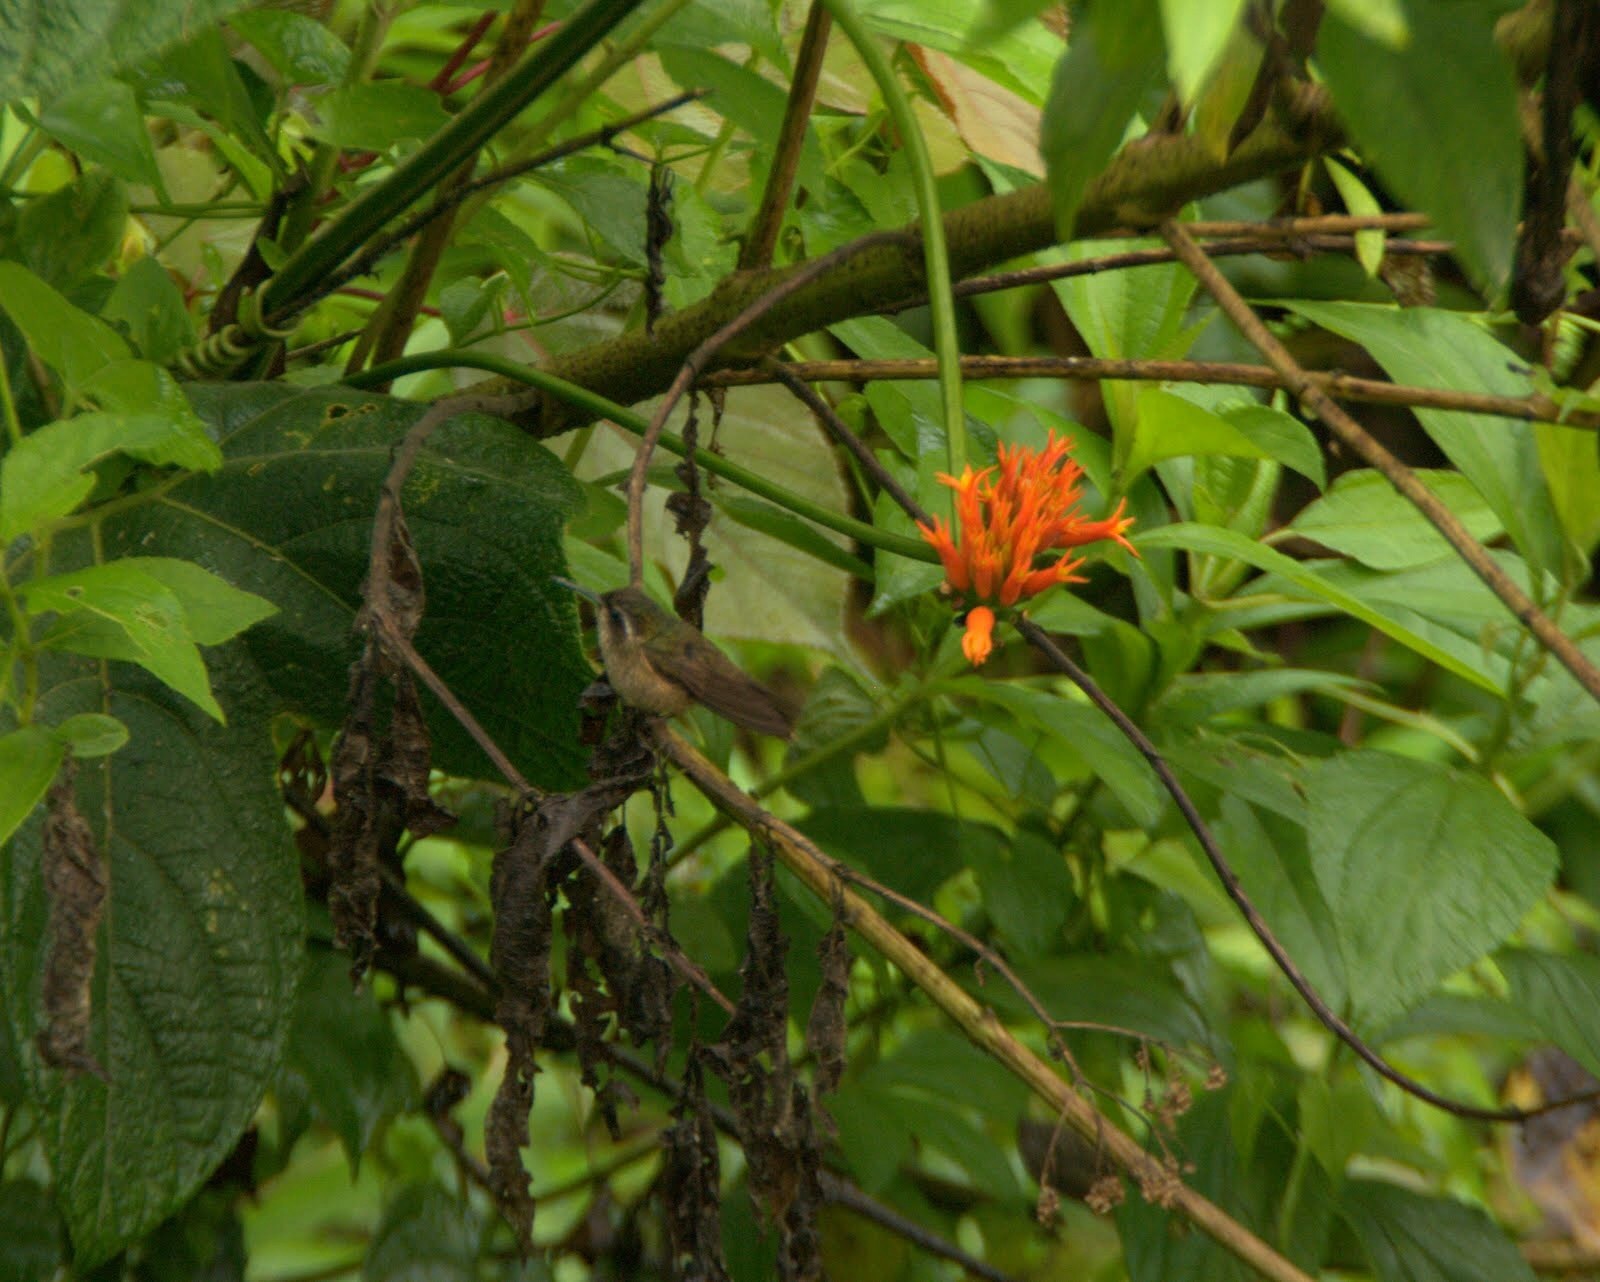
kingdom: Animalia
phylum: Chordata
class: Aves
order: Apodiformes
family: Trochilidae
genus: Adelomyia
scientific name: Adelomyia melanogenys
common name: Speckled hummingbird
